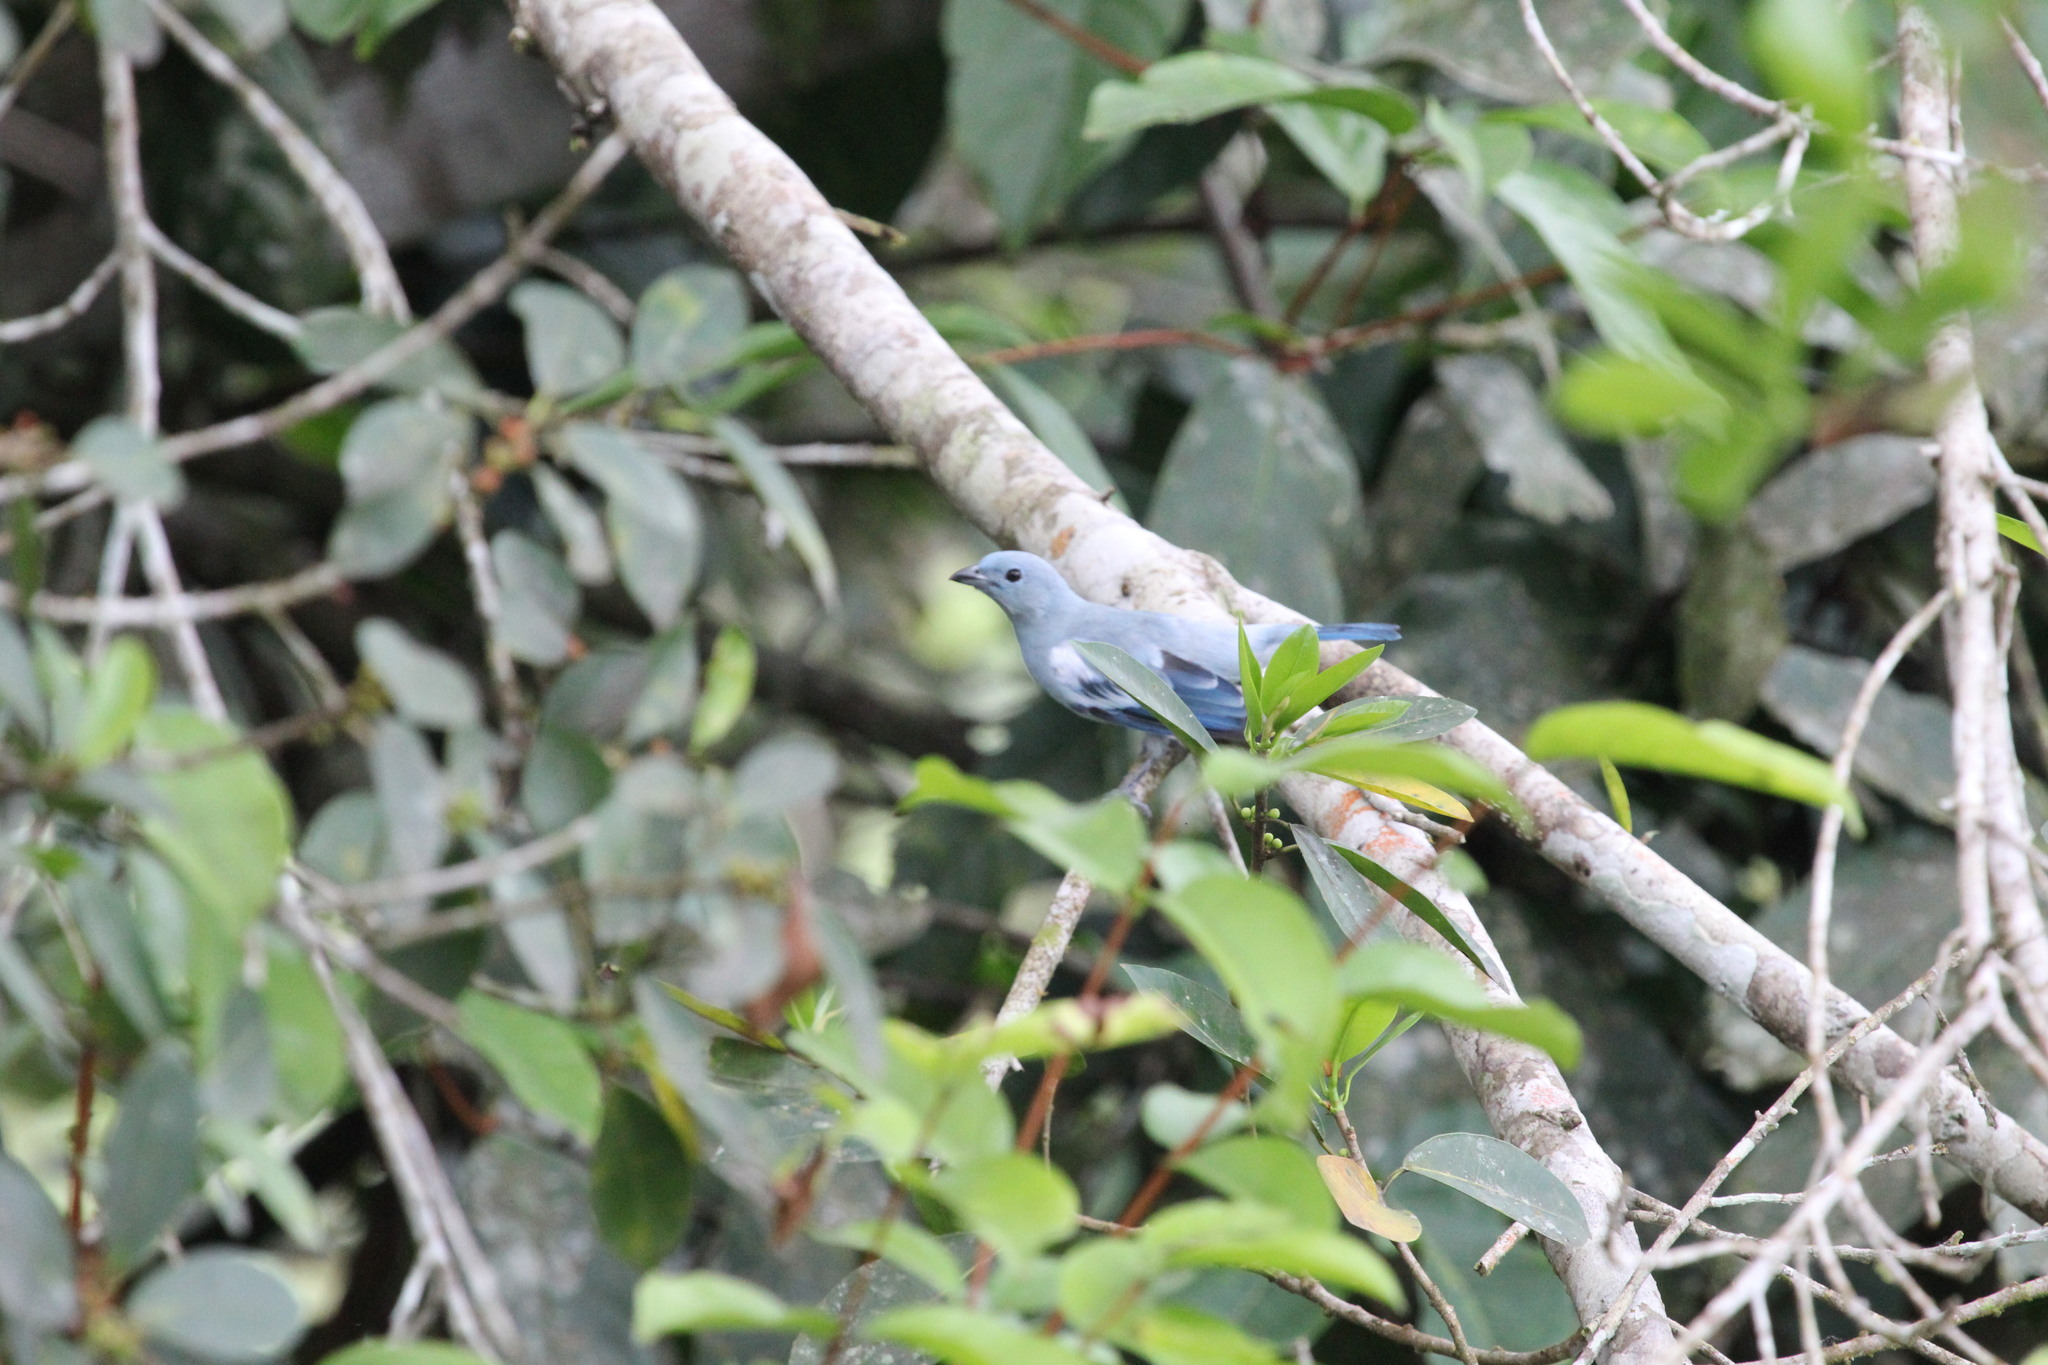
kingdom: Animalia
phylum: Chordata
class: Aves
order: Passeriformes
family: Thraupidae
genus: Thraupis
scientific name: Thraupis episcopus
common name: Blue-grey tanager
